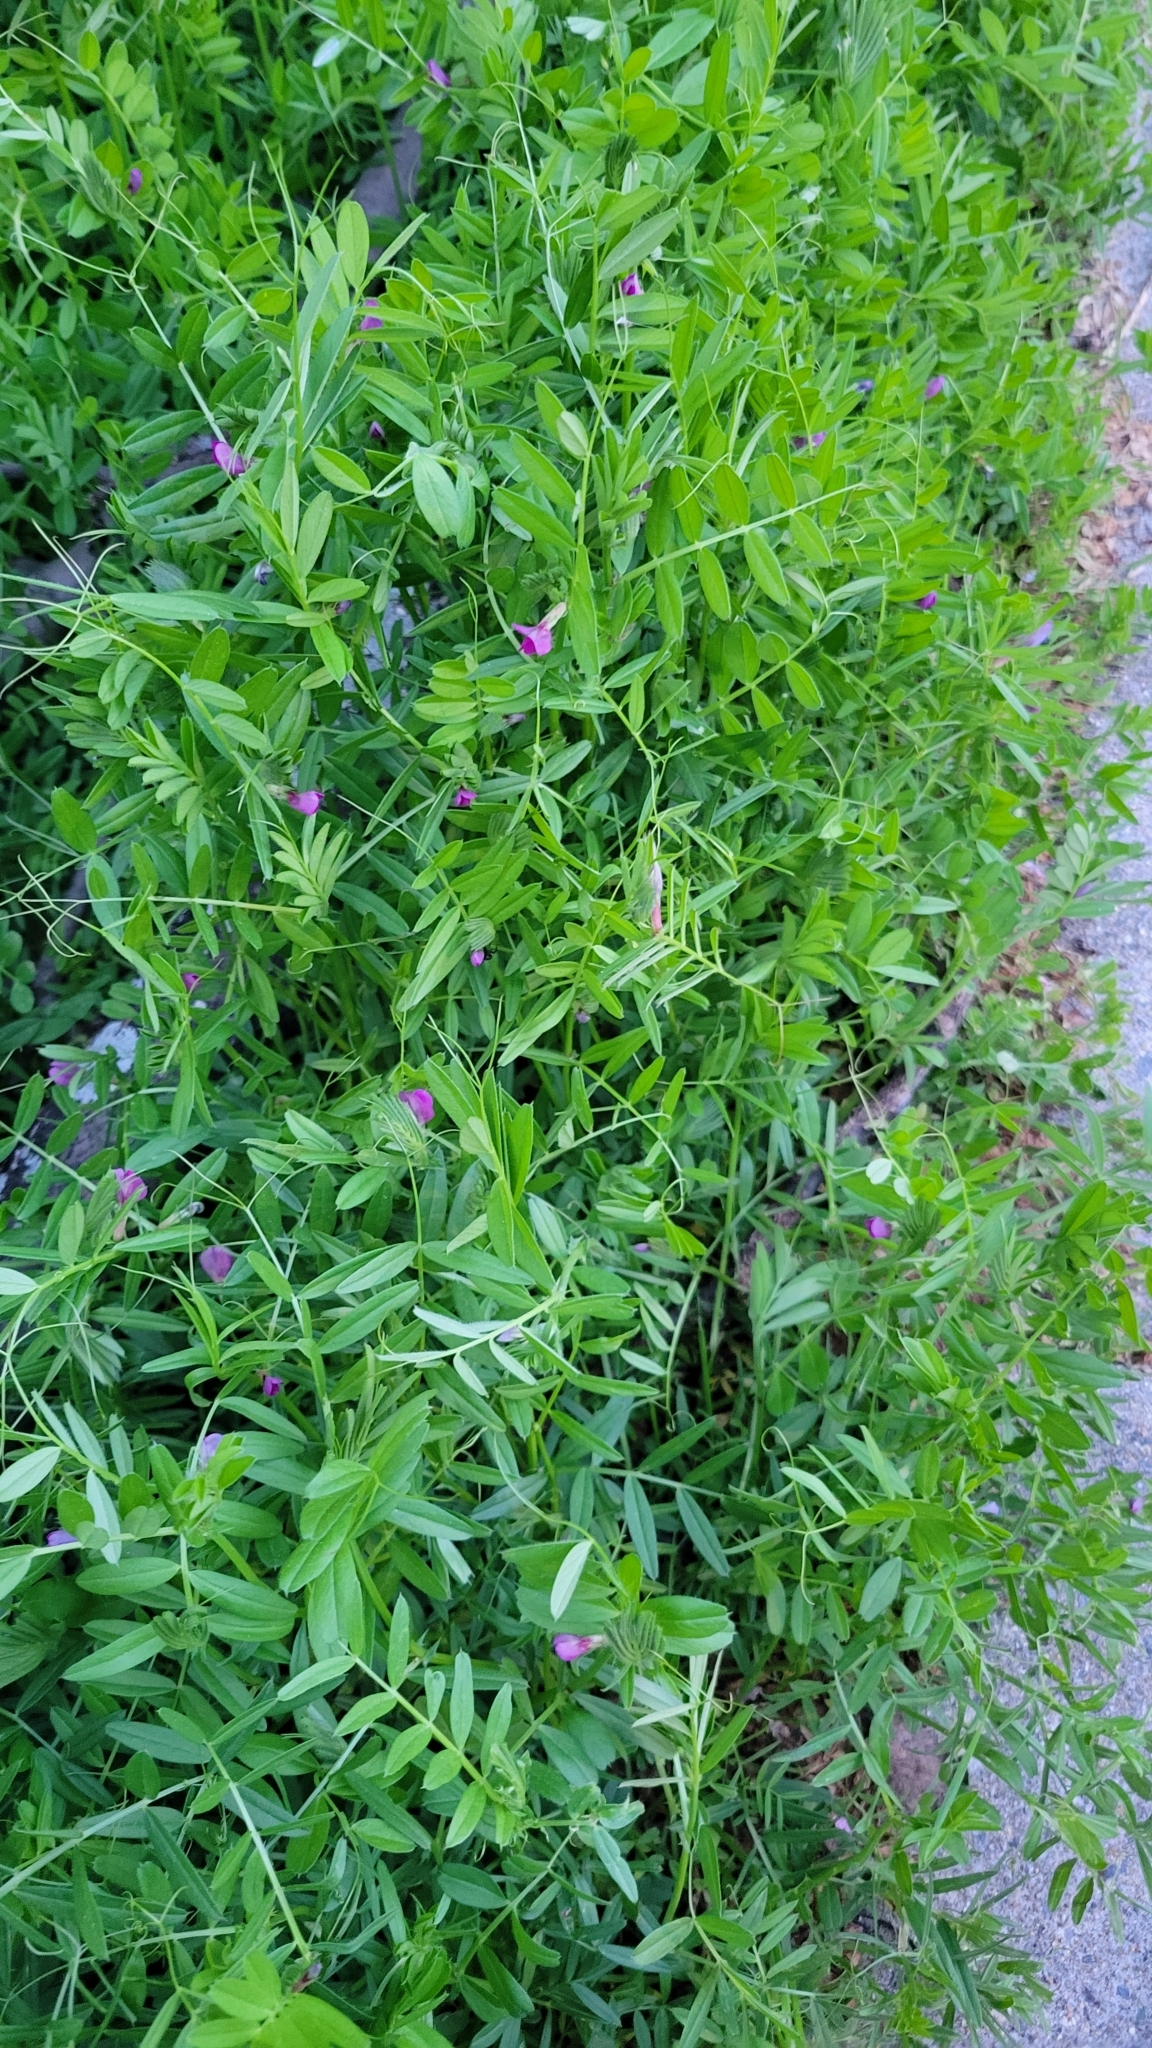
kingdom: Plantae
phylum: Tracheophyta
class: Magnoliopsida
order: Fabales
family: Fabaceae
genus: Vicia
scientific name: Vicia sativa
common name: Garden vetch
